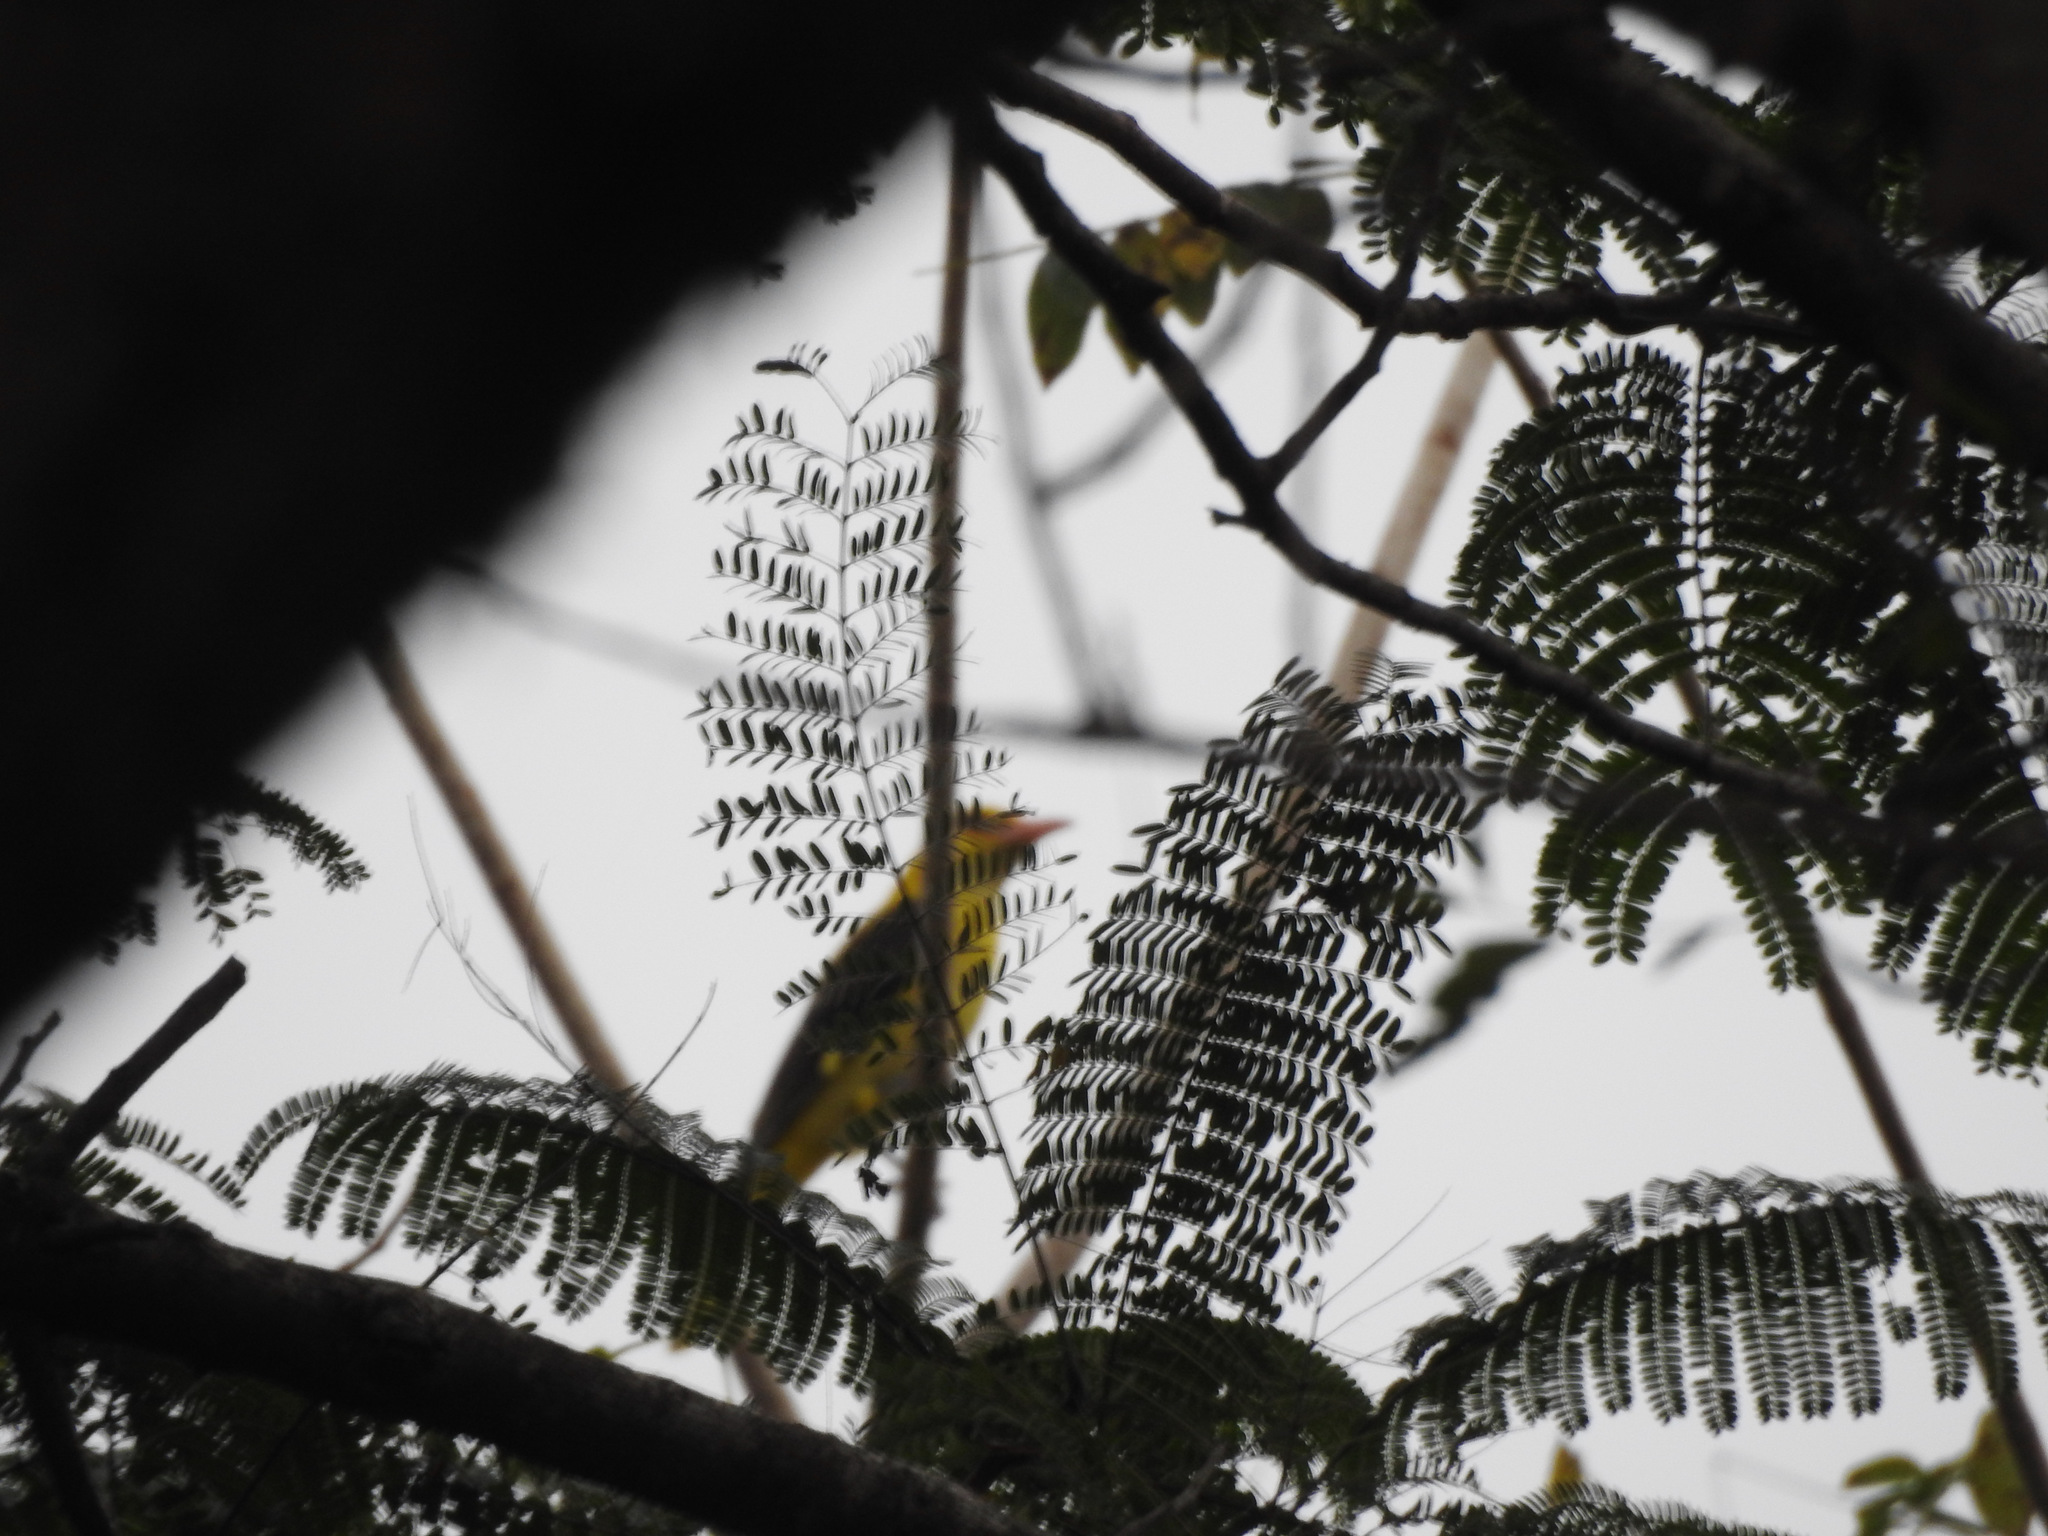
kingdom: Animalia
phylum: Chordata
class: Aves
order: Passeriformes
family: Oriolidae
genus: Oriolus
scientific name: Oriolus kundoo
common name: Indian golden oriole
